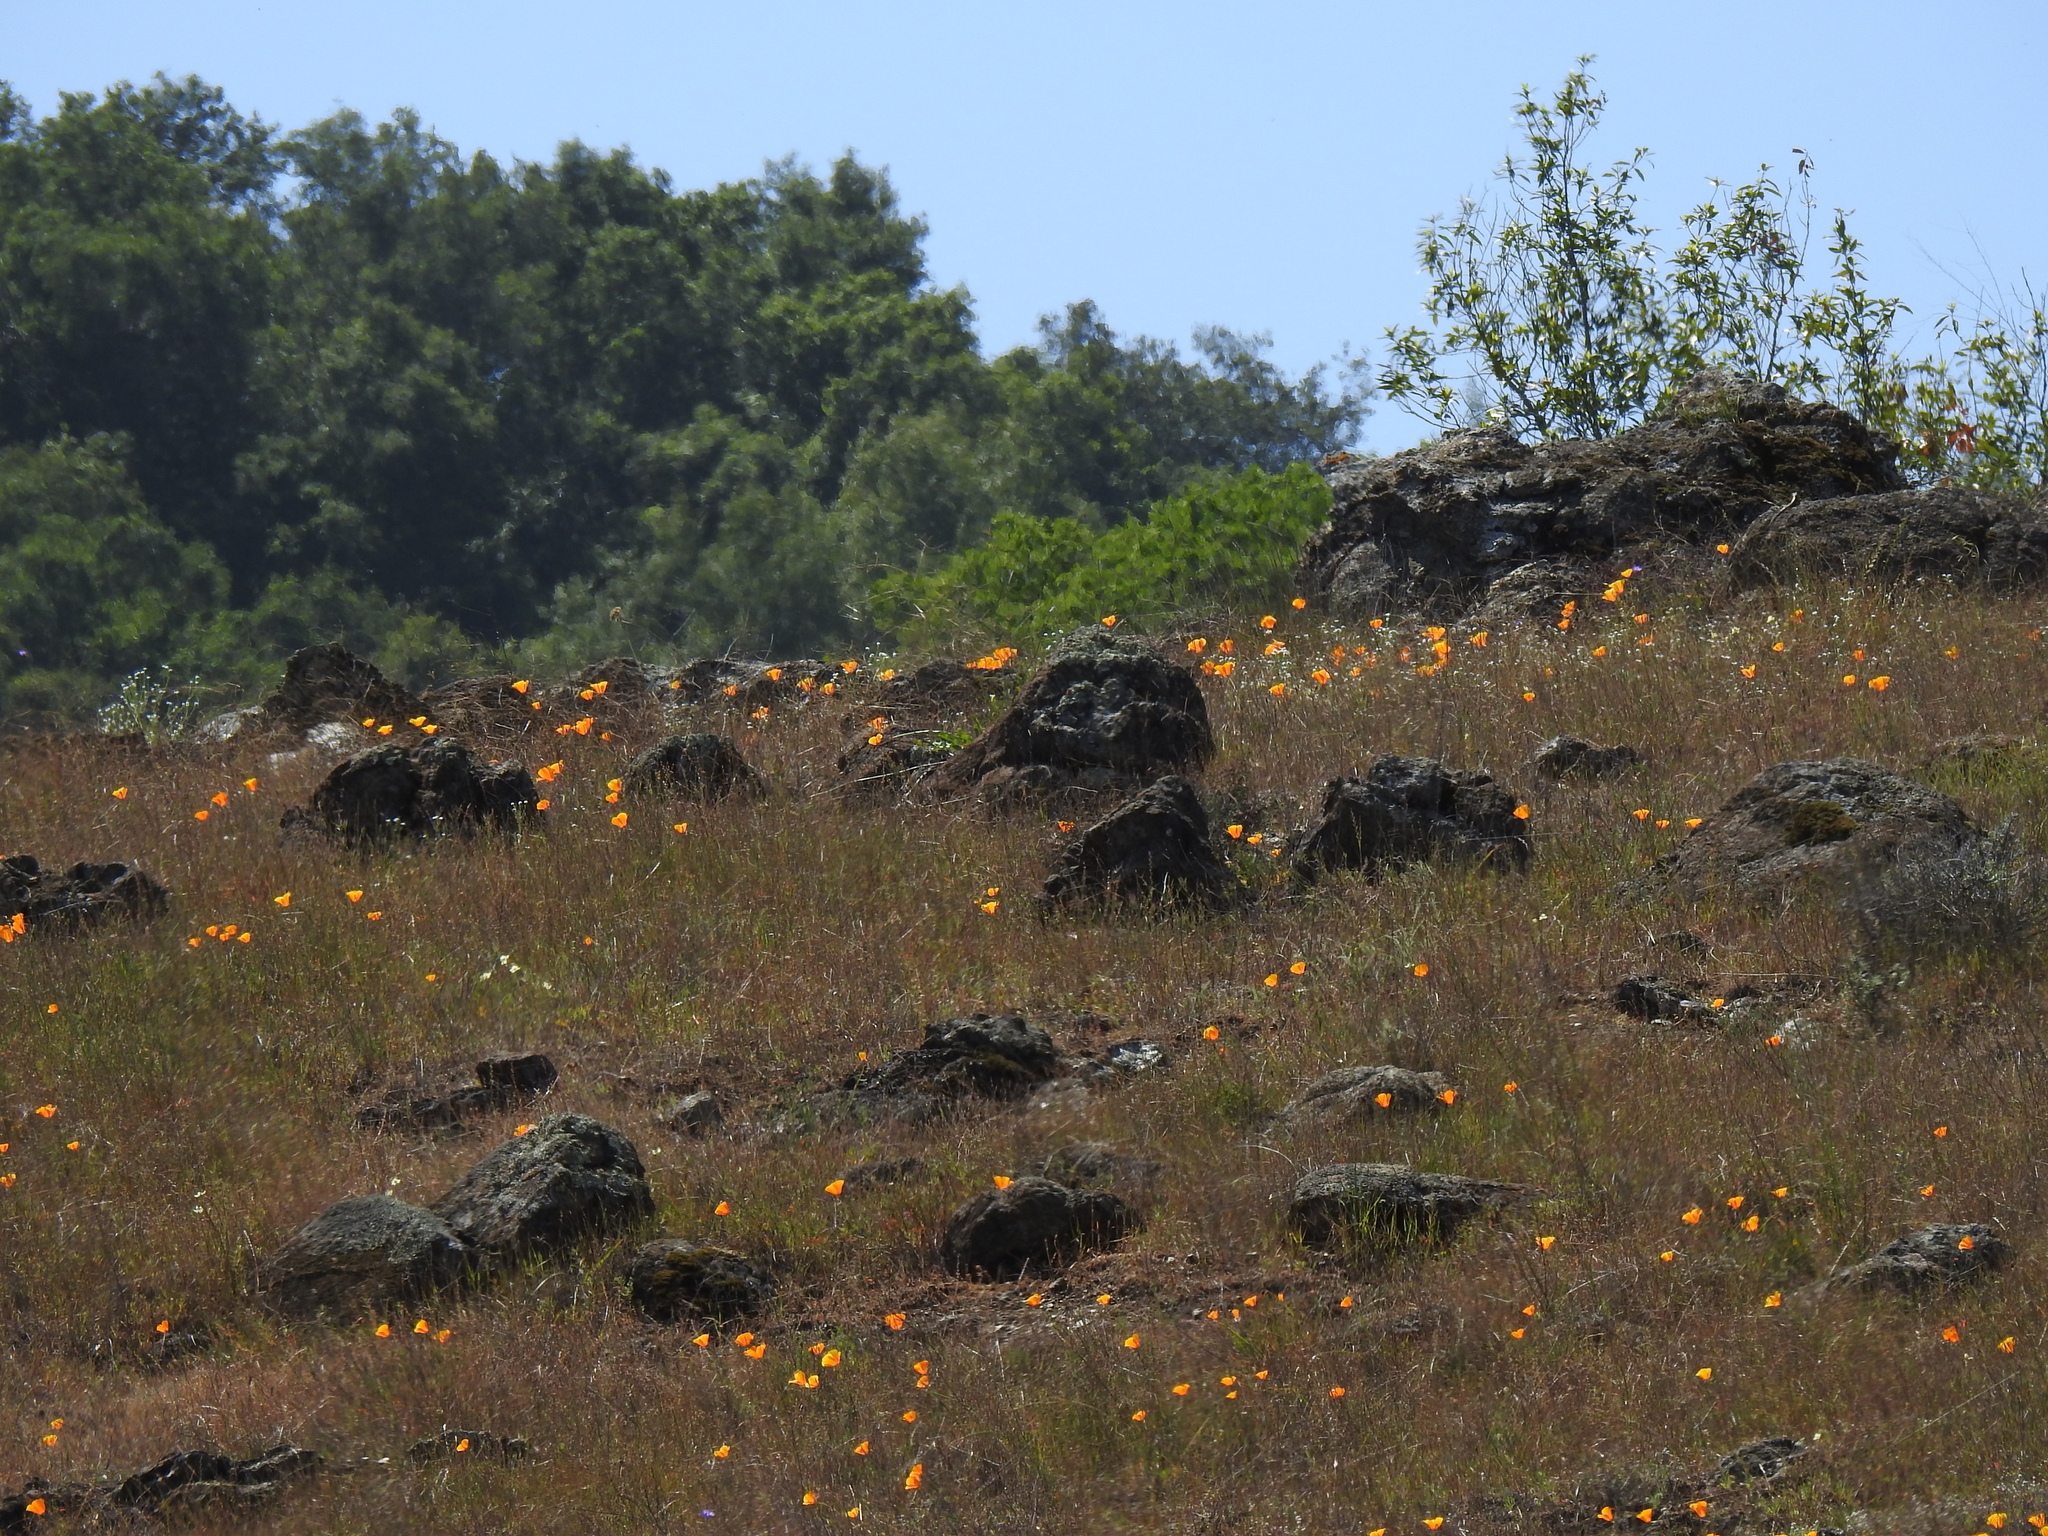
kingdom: Plantae
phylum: Tracheophyta
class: Magnoliopsida
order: Ranunculales
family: Papaveraceae
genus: Eschscholzia
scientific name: Eschscholzia californica
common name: California poppy
